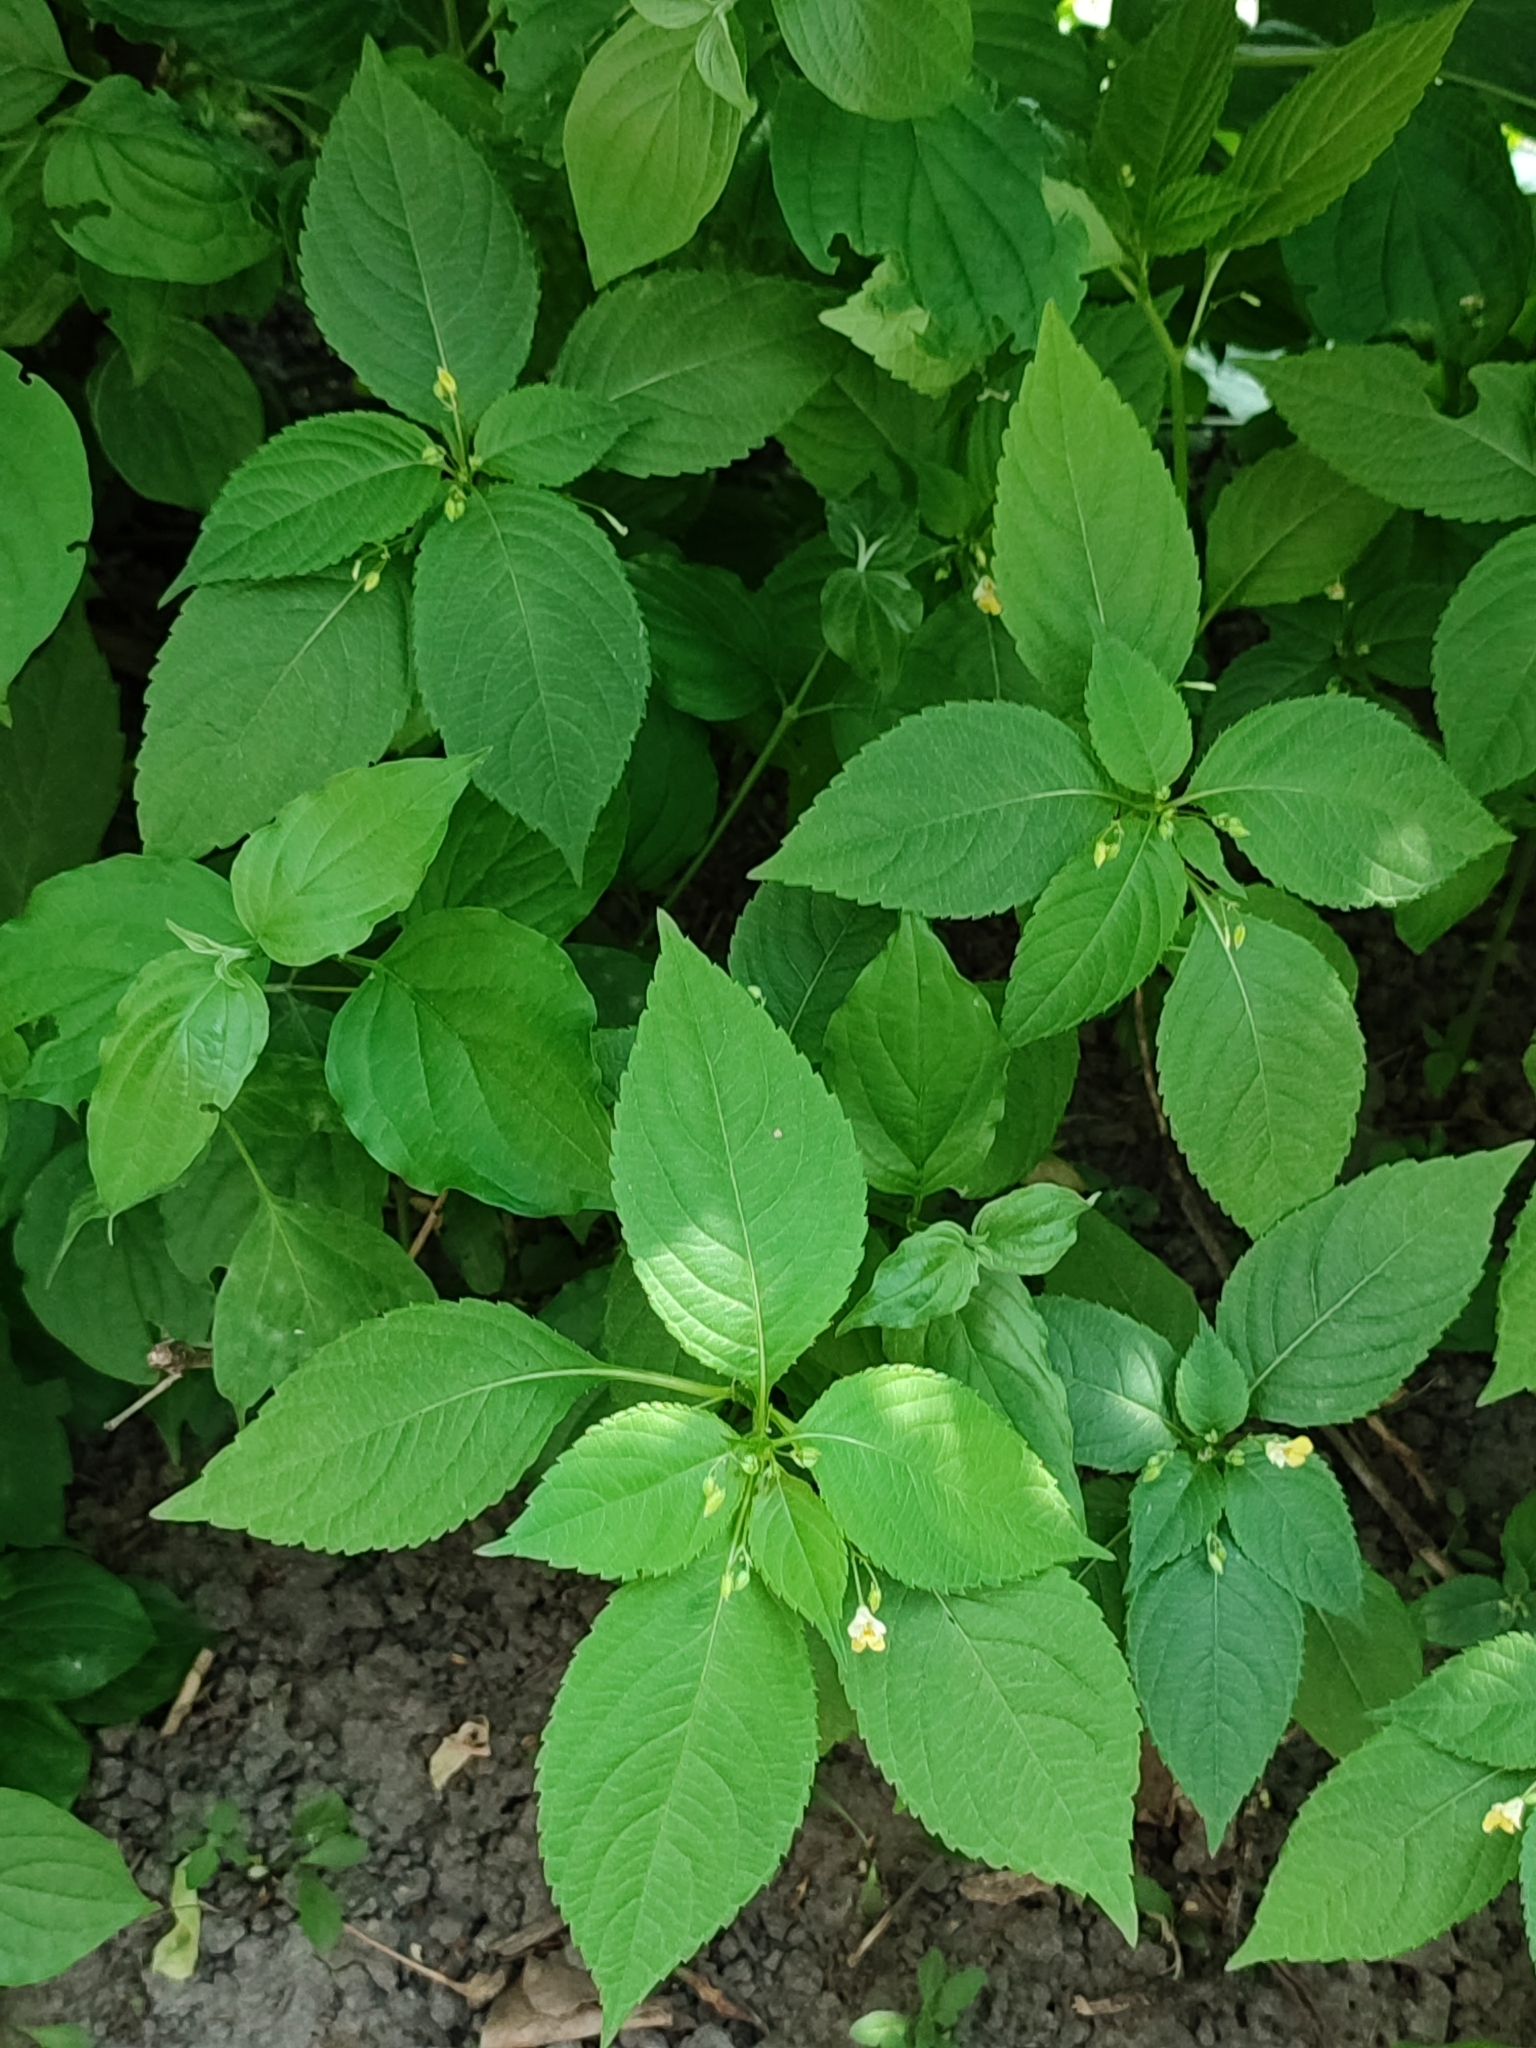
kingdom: Plantae
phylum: Tracheophyta
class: Magnoliopsida
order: Ericales
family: Balsaminaceae
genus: Impatiens
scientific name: Impatiens parviflora
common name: Small balsam
